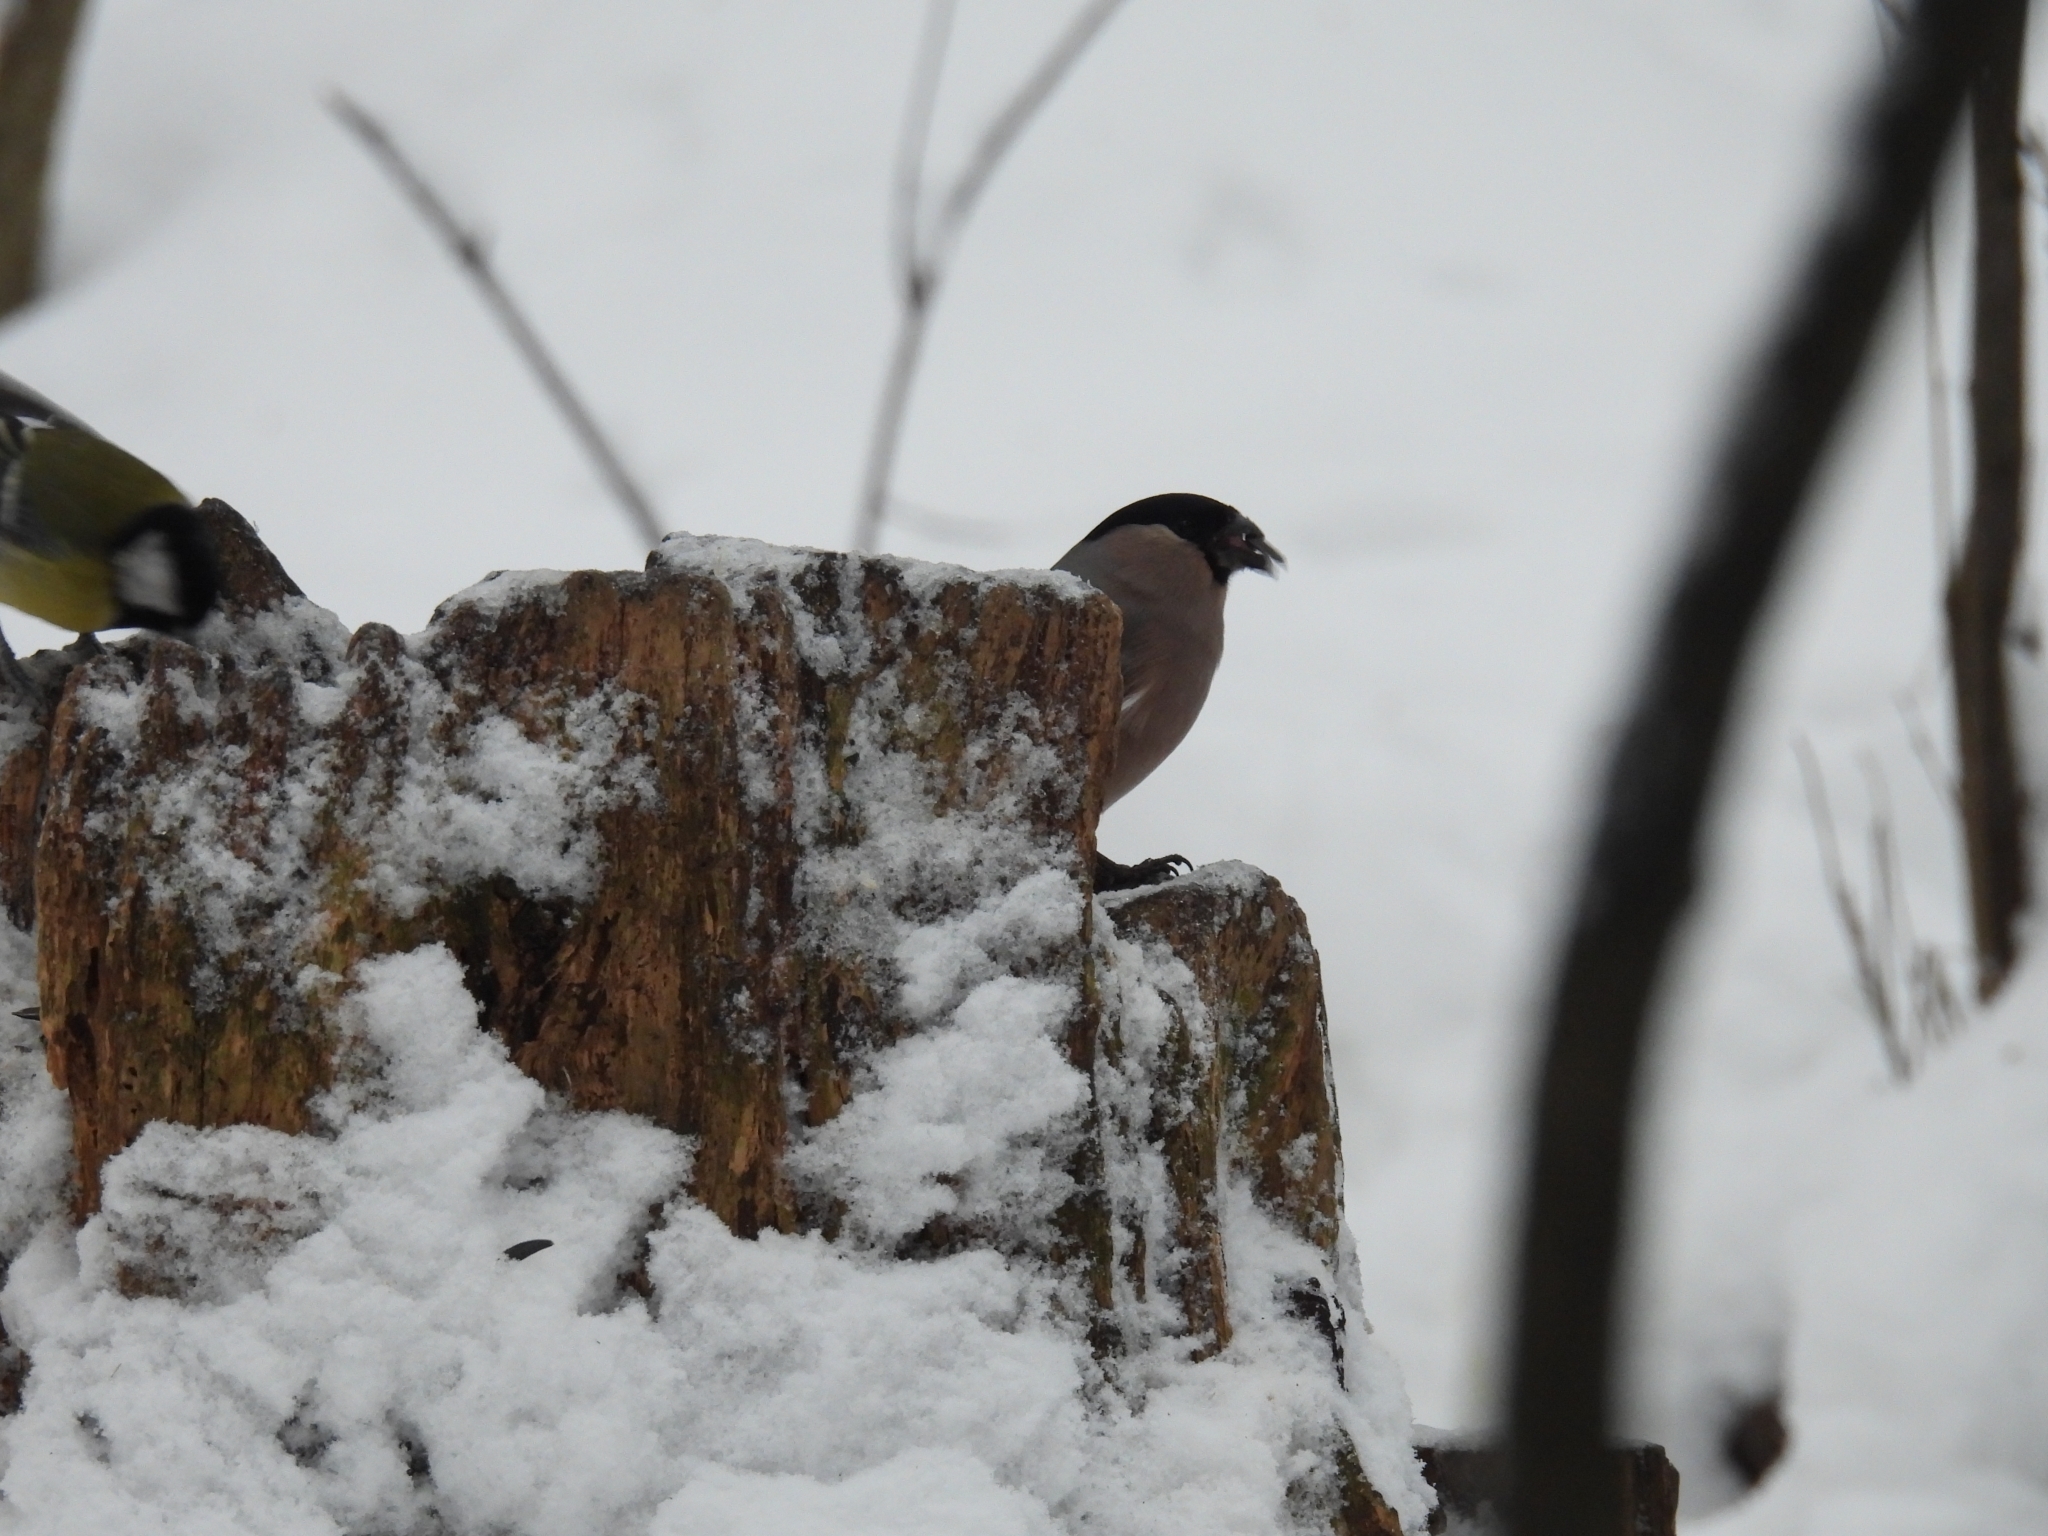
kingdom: Animalia
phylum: Chordata
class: Aves
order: Passeriformes
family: Fringillidae
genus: Pyrrhula
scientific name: Pyrrhula pyrrhula
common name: Eurasian bullfinch
